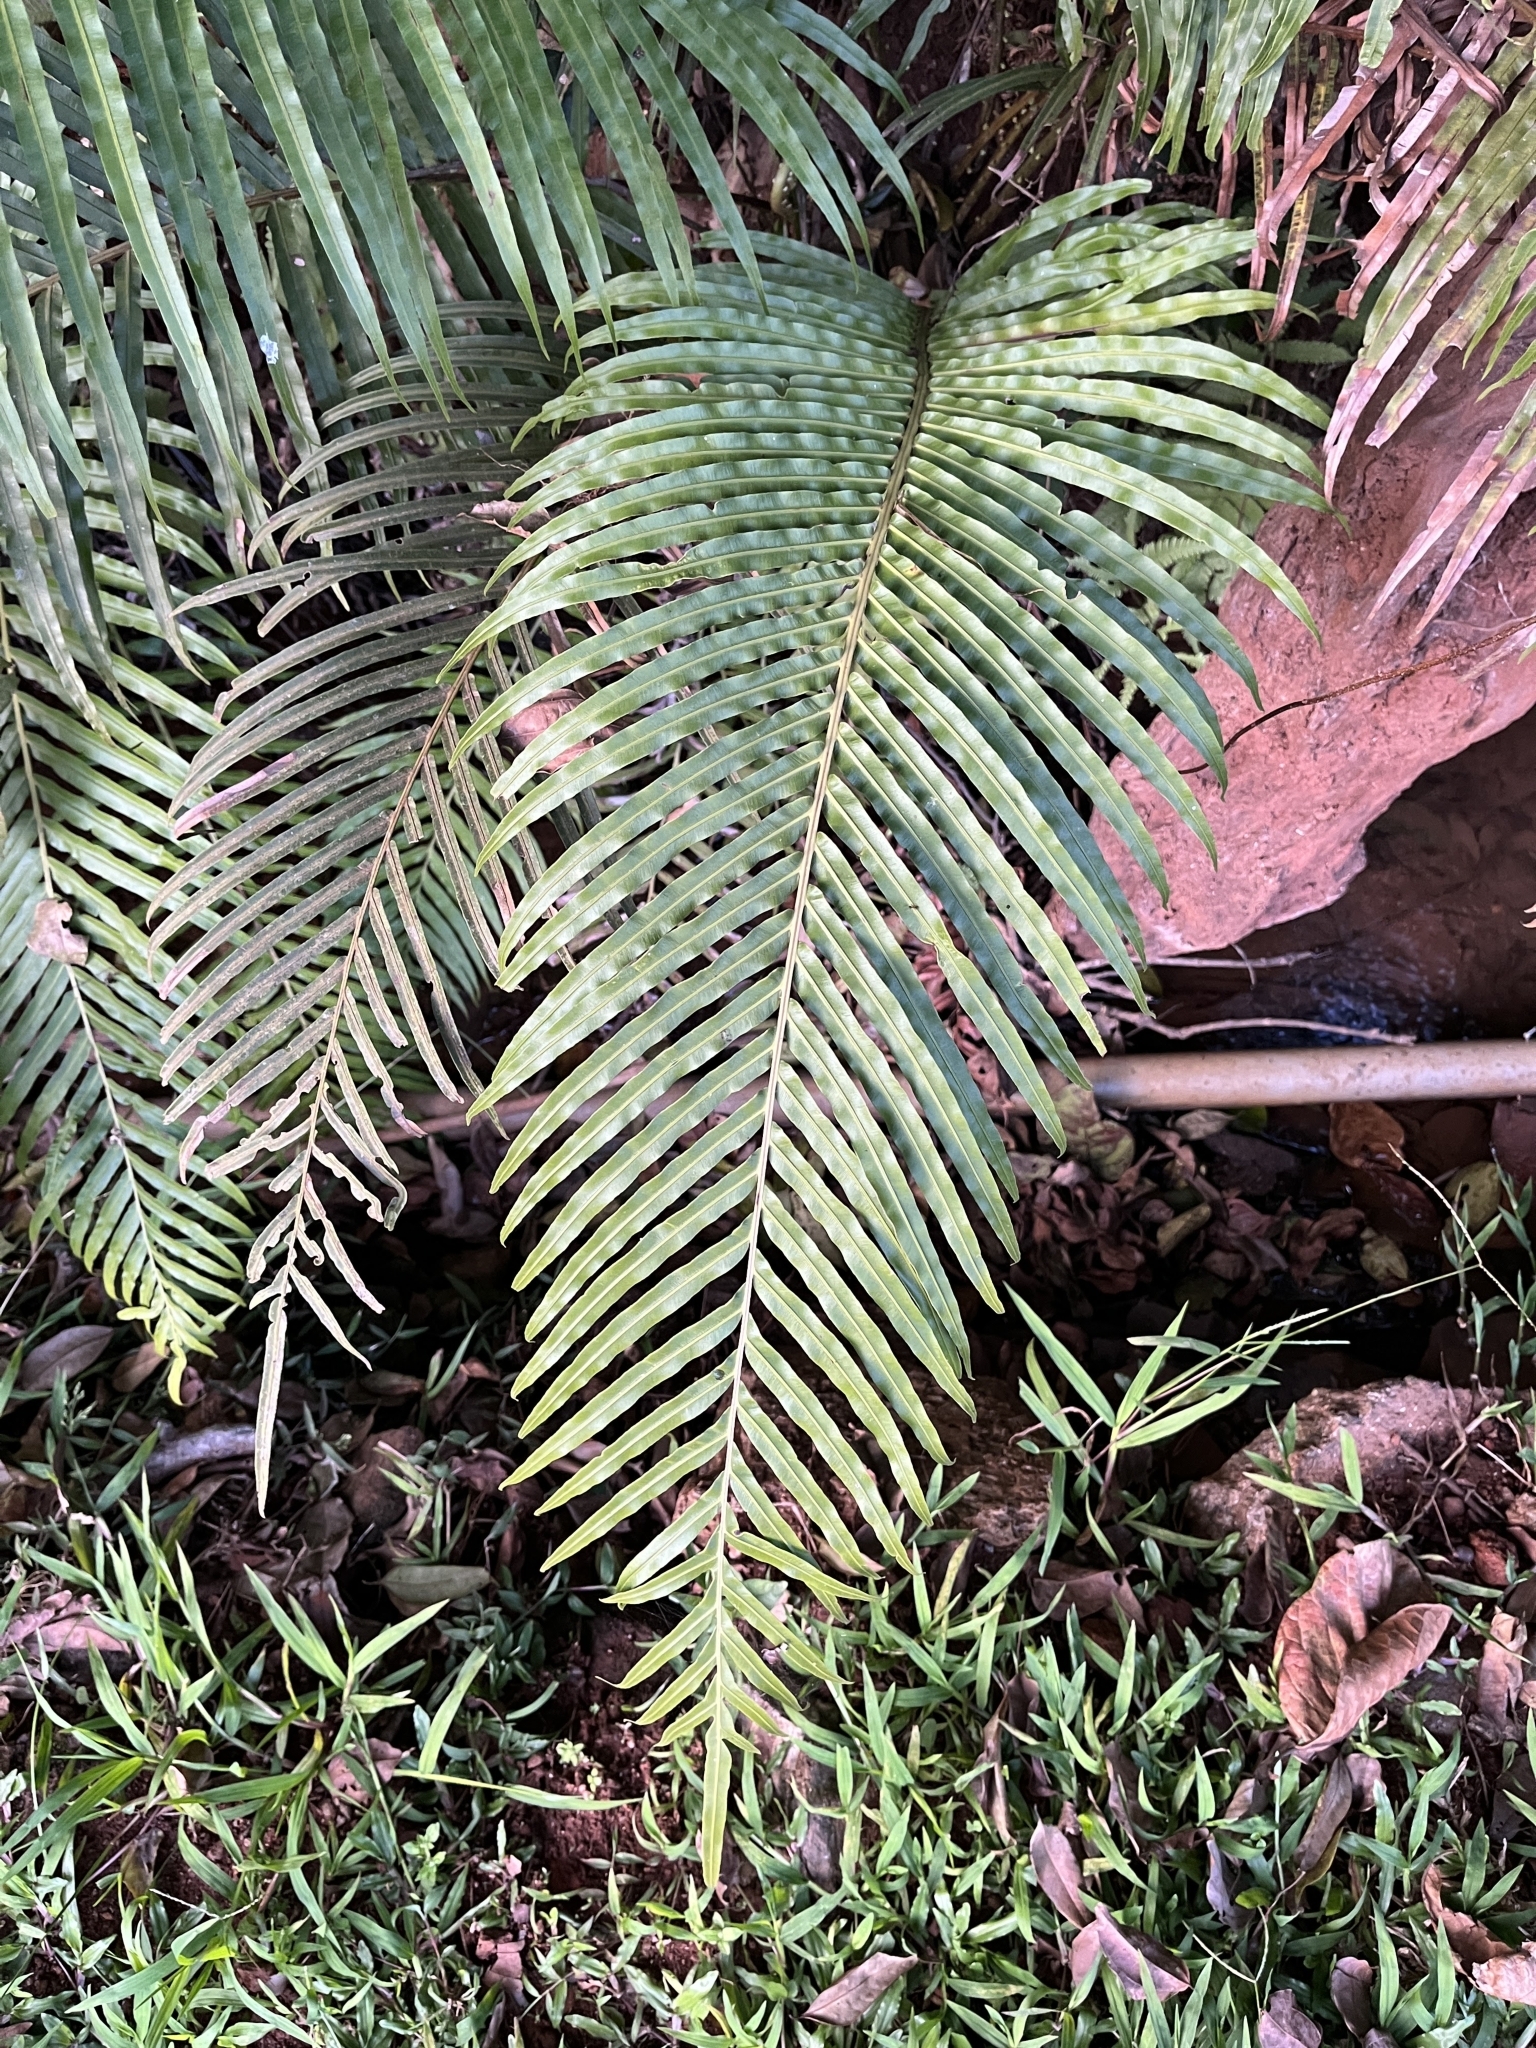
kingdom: Plantae
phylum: Tracheophyta
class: Polypodiopsida
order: Polypodiales
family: Blechnaceae
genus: Blechnopsis
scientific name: Blechnopsis orientalis
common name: Oriental blechnum
